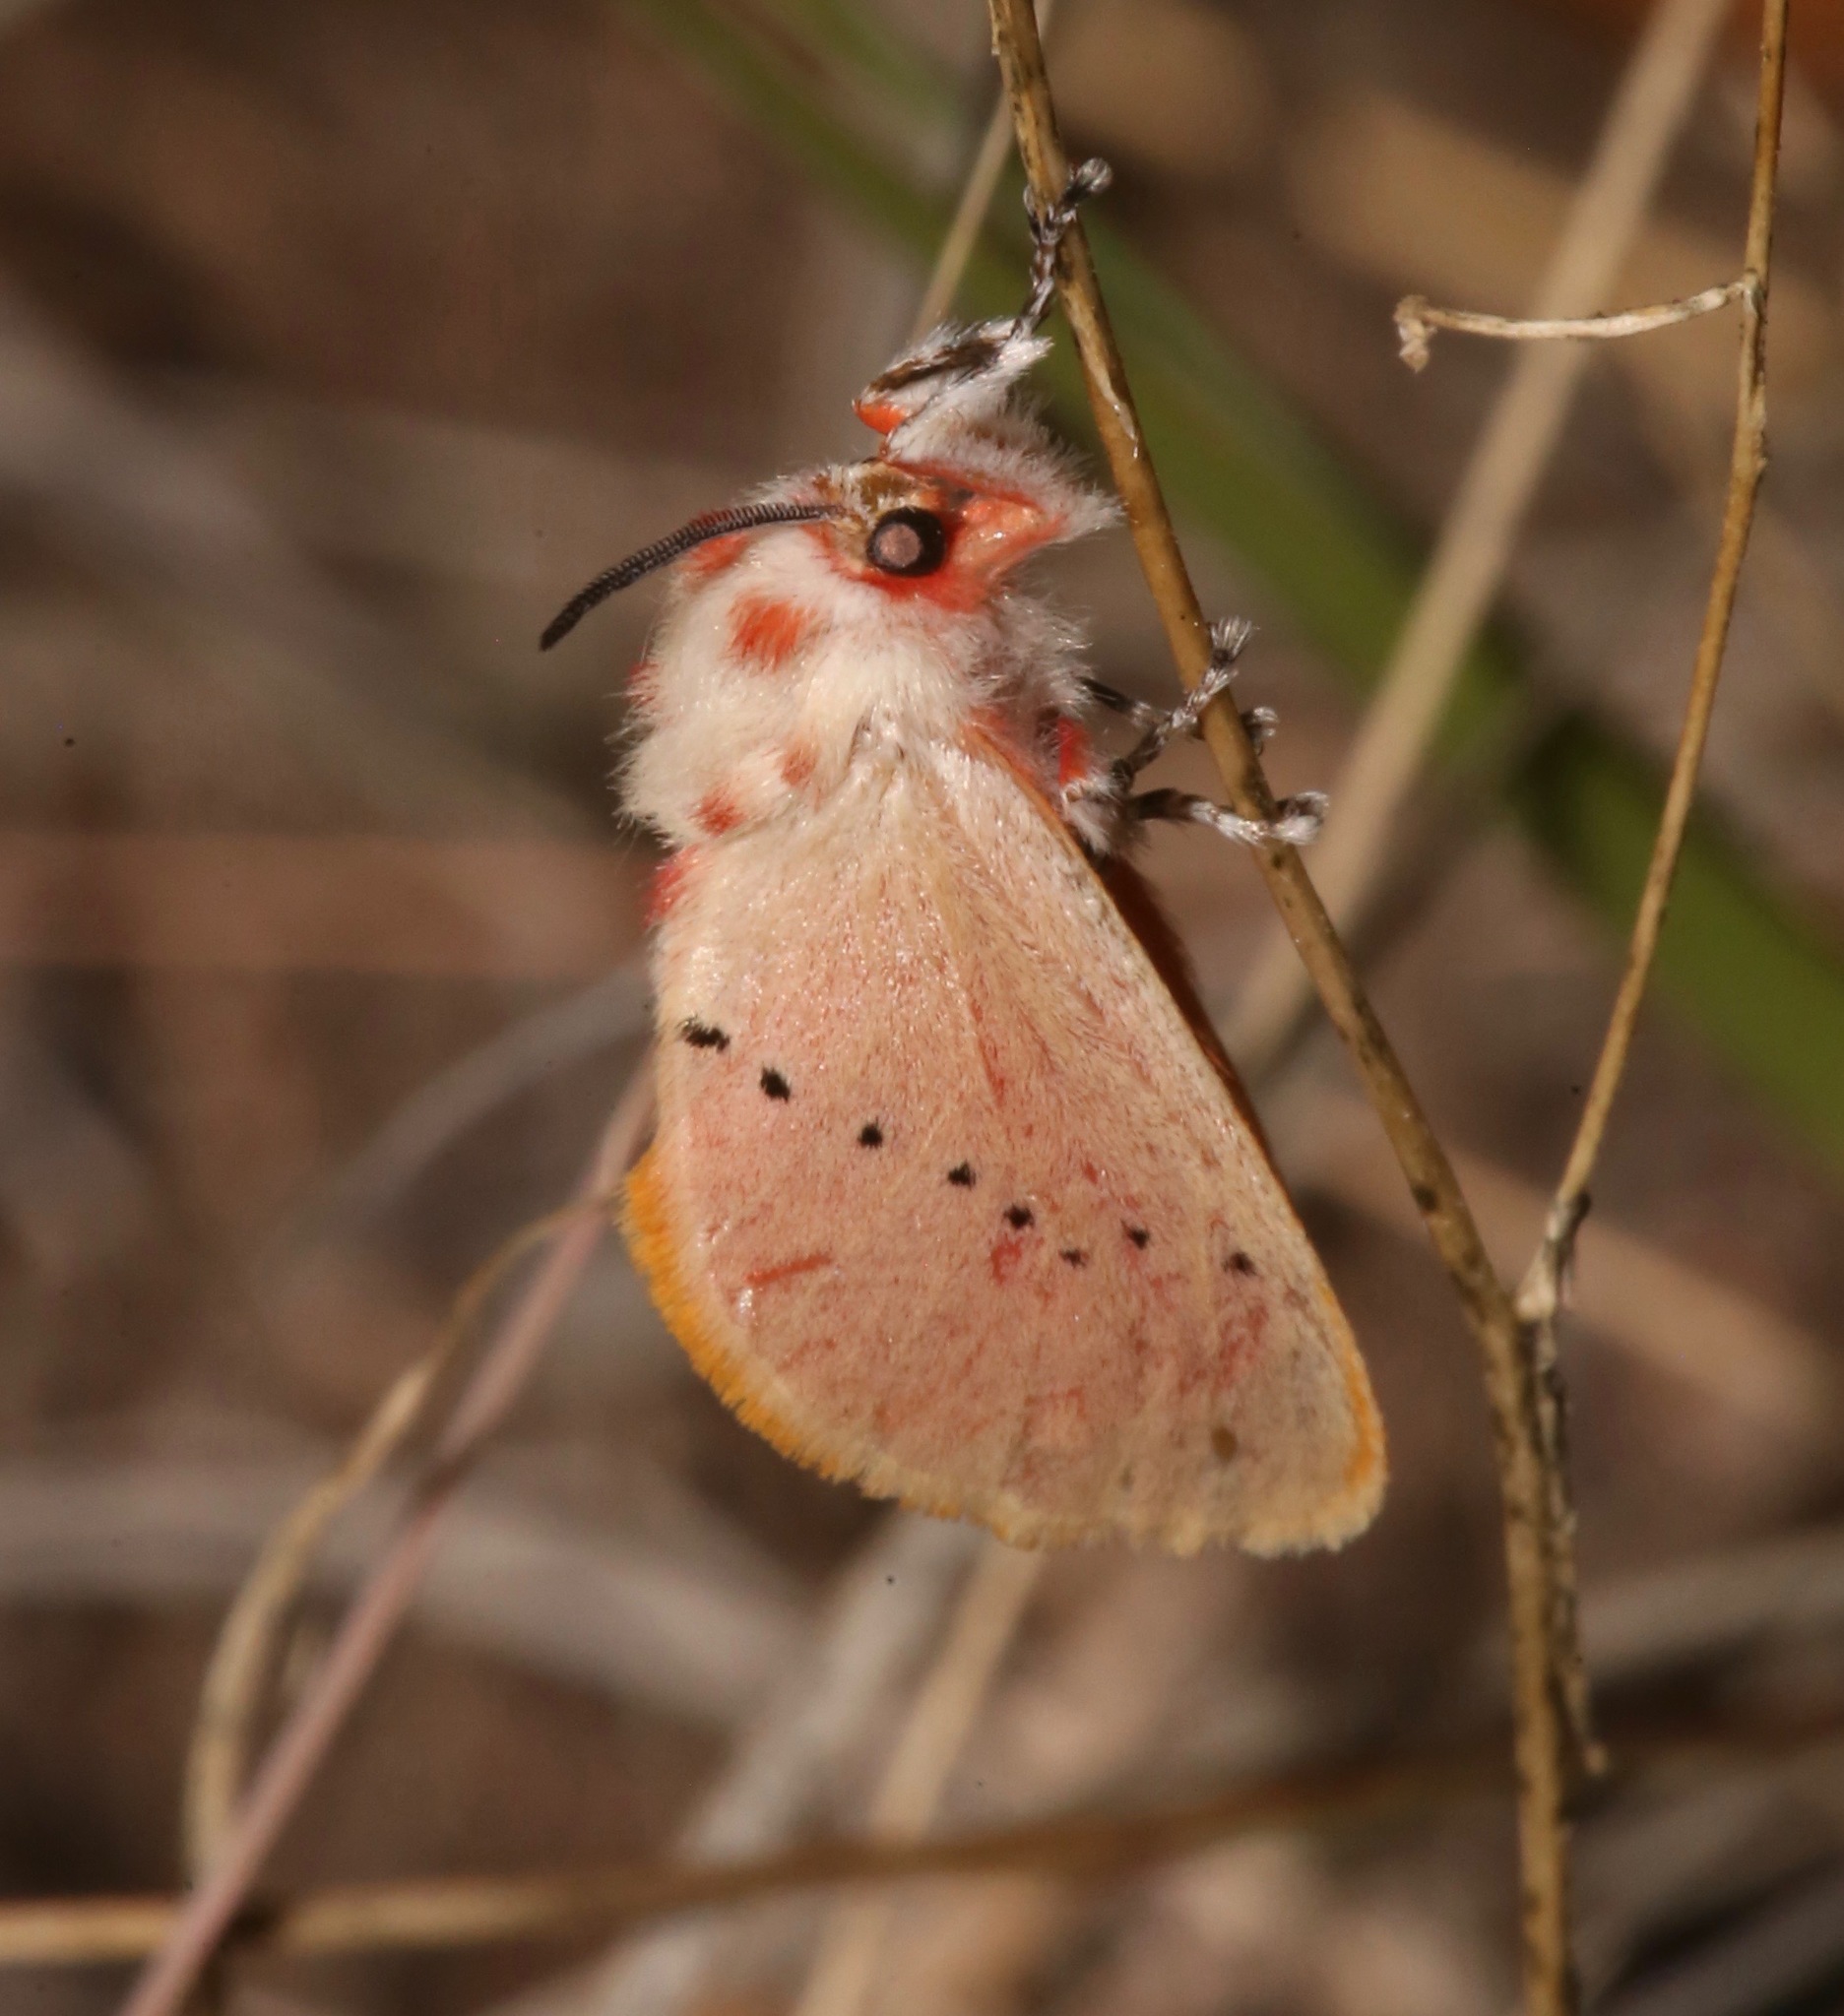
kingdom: Animalia
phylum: Arthropoda
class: Insecta
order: Lepidoptera
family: Megalopygidae
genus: Trosia
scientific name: Trosia obsolescens
